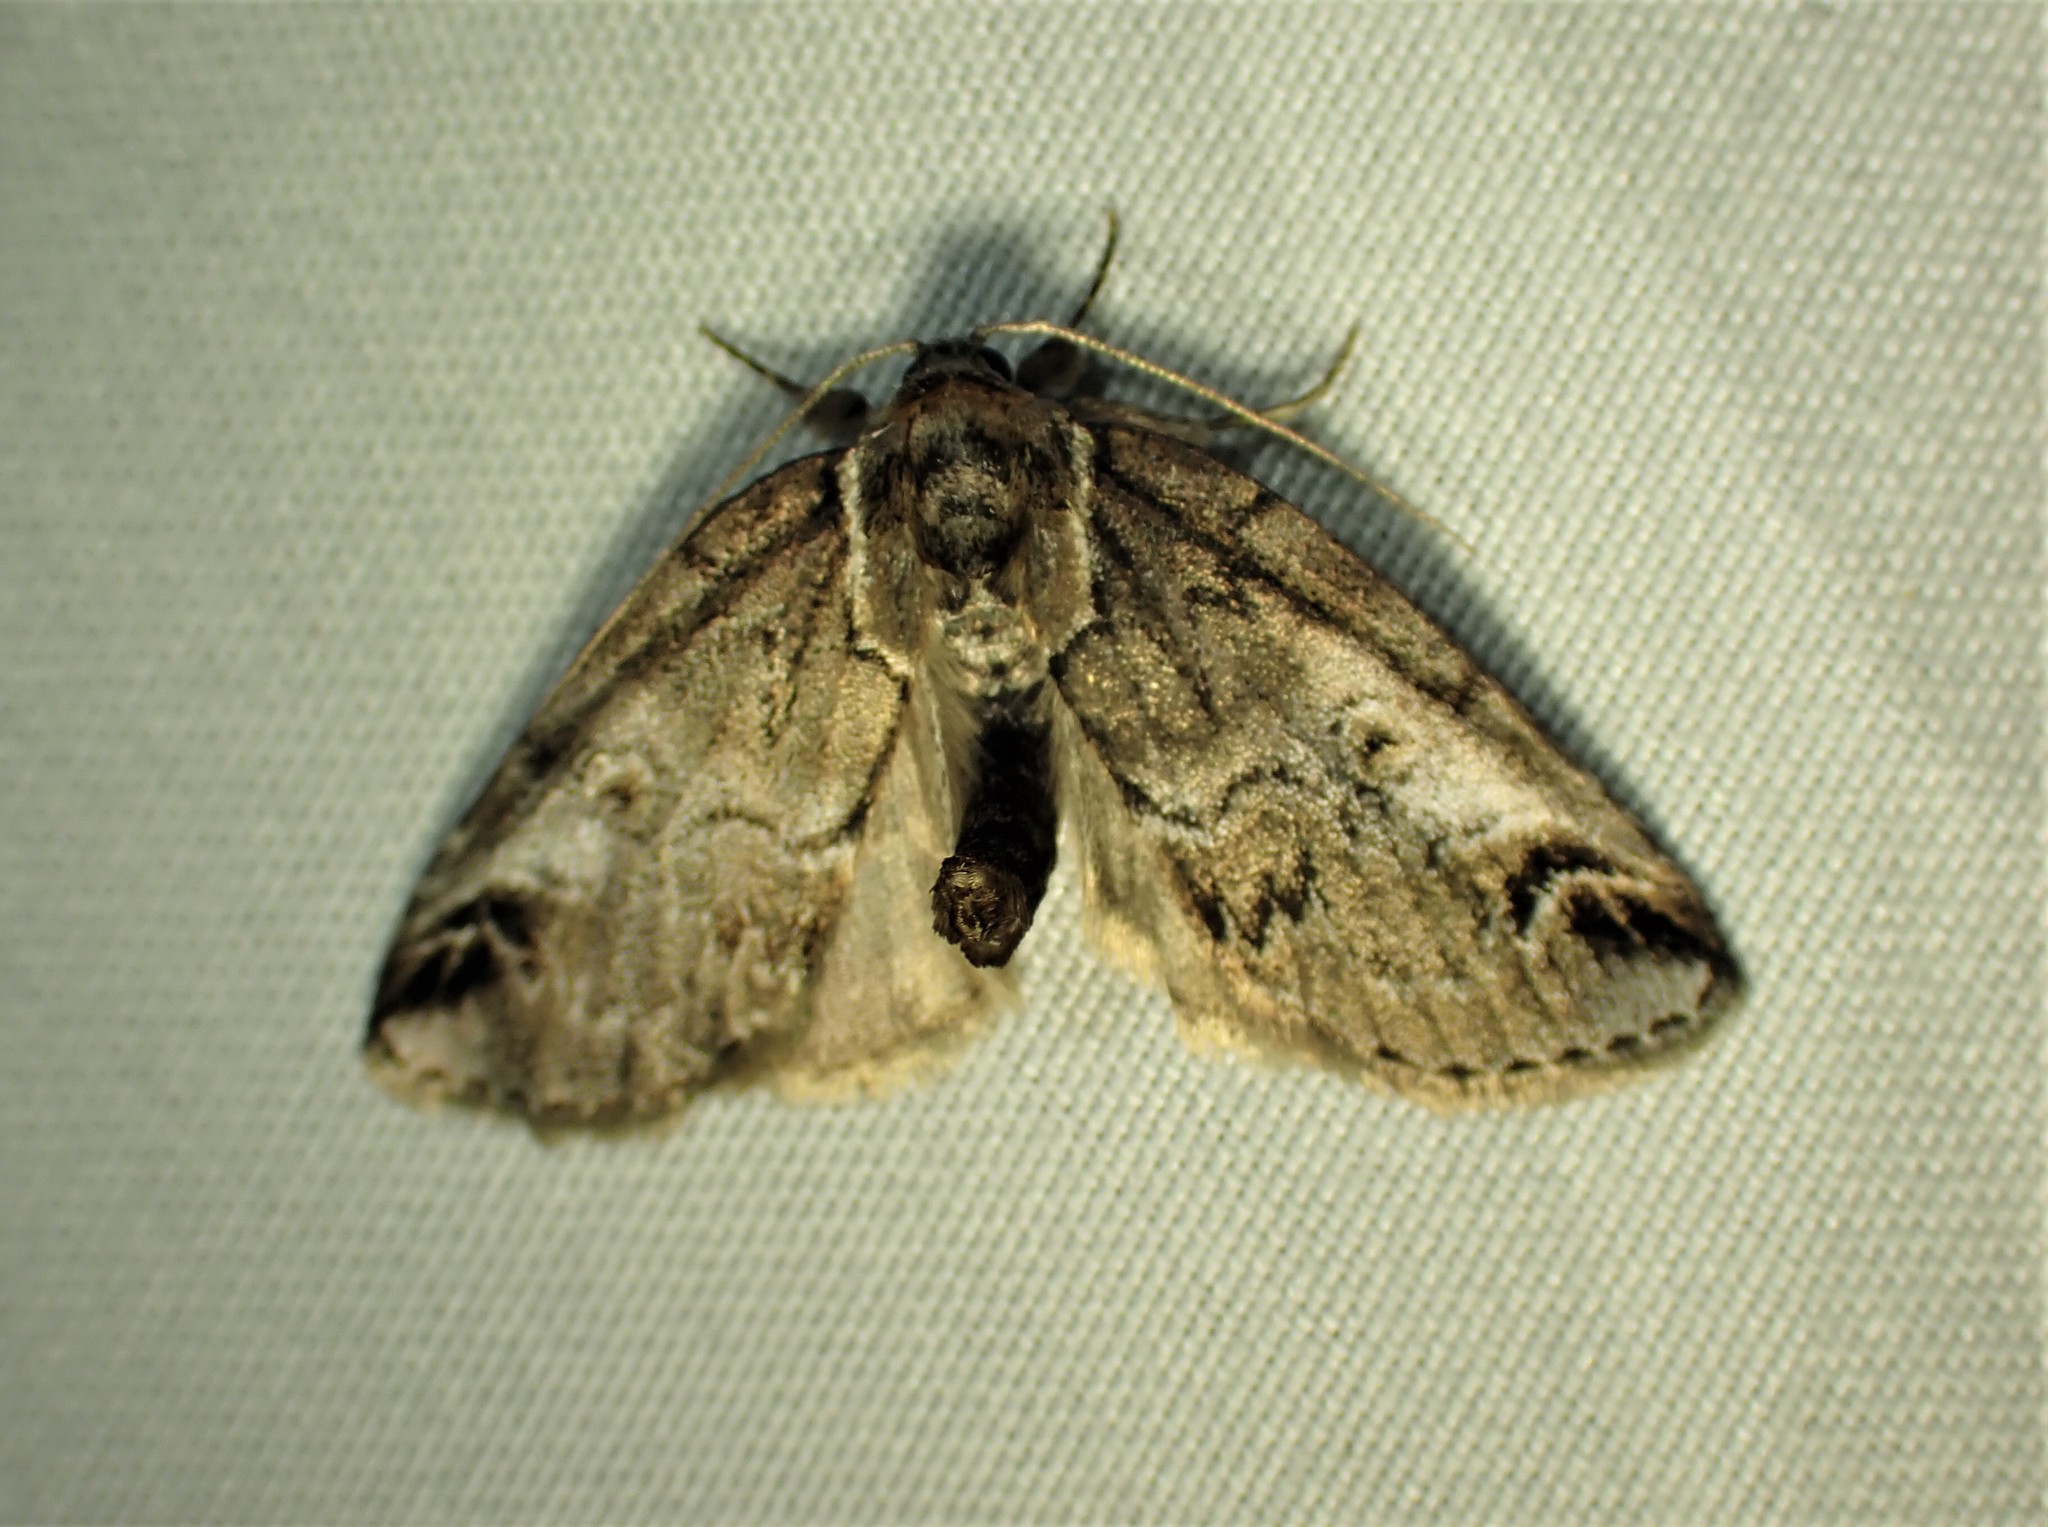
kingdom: Animalia
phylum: Arthropoda
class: Insecta
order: Lepidoptera
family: Nolidae
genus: Baileya
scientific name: Baileya ophthalmica
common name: Eyed baileya moth
